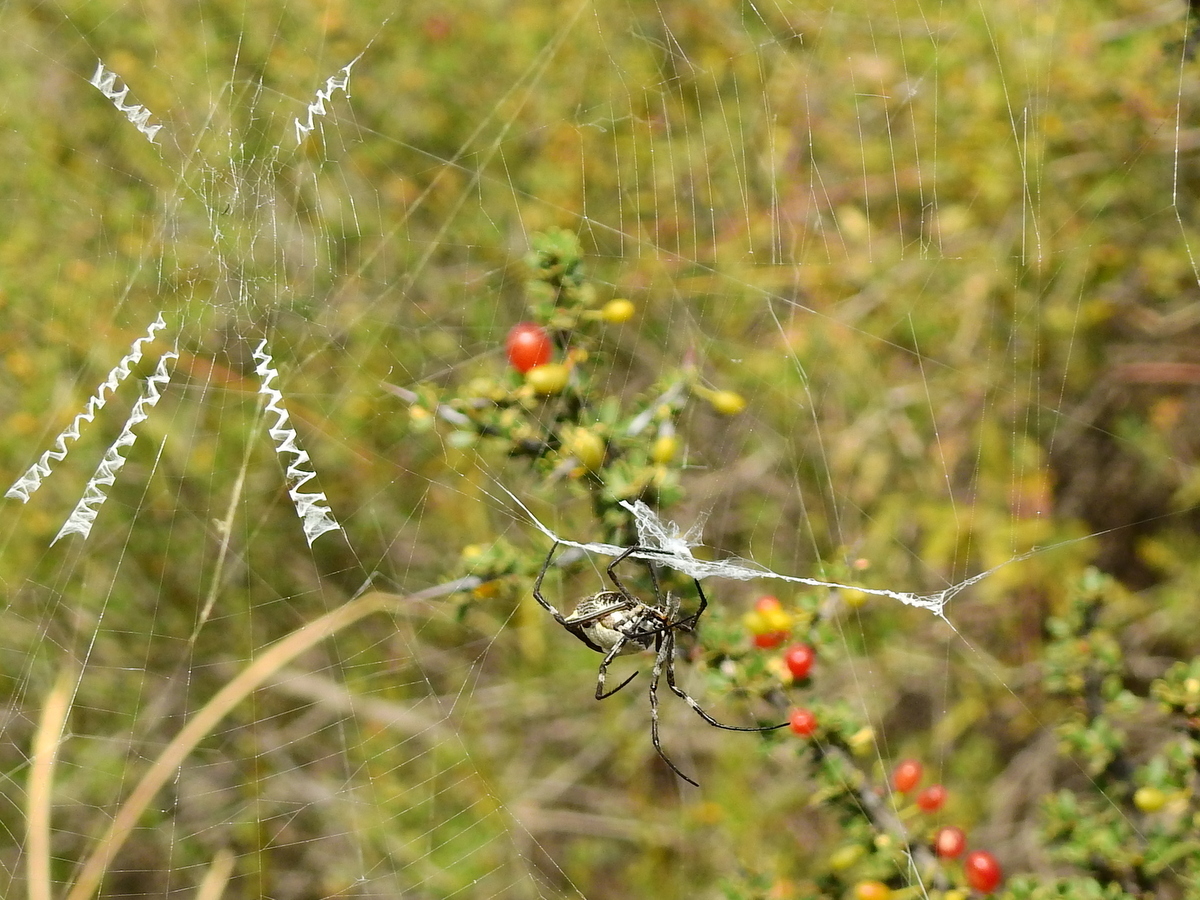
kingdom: Animalia
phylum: Arthropoda
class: Arachnida
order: Araneae
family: Araneidae
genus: Argiope
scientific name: Argiope argentata
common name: Orb weavers
